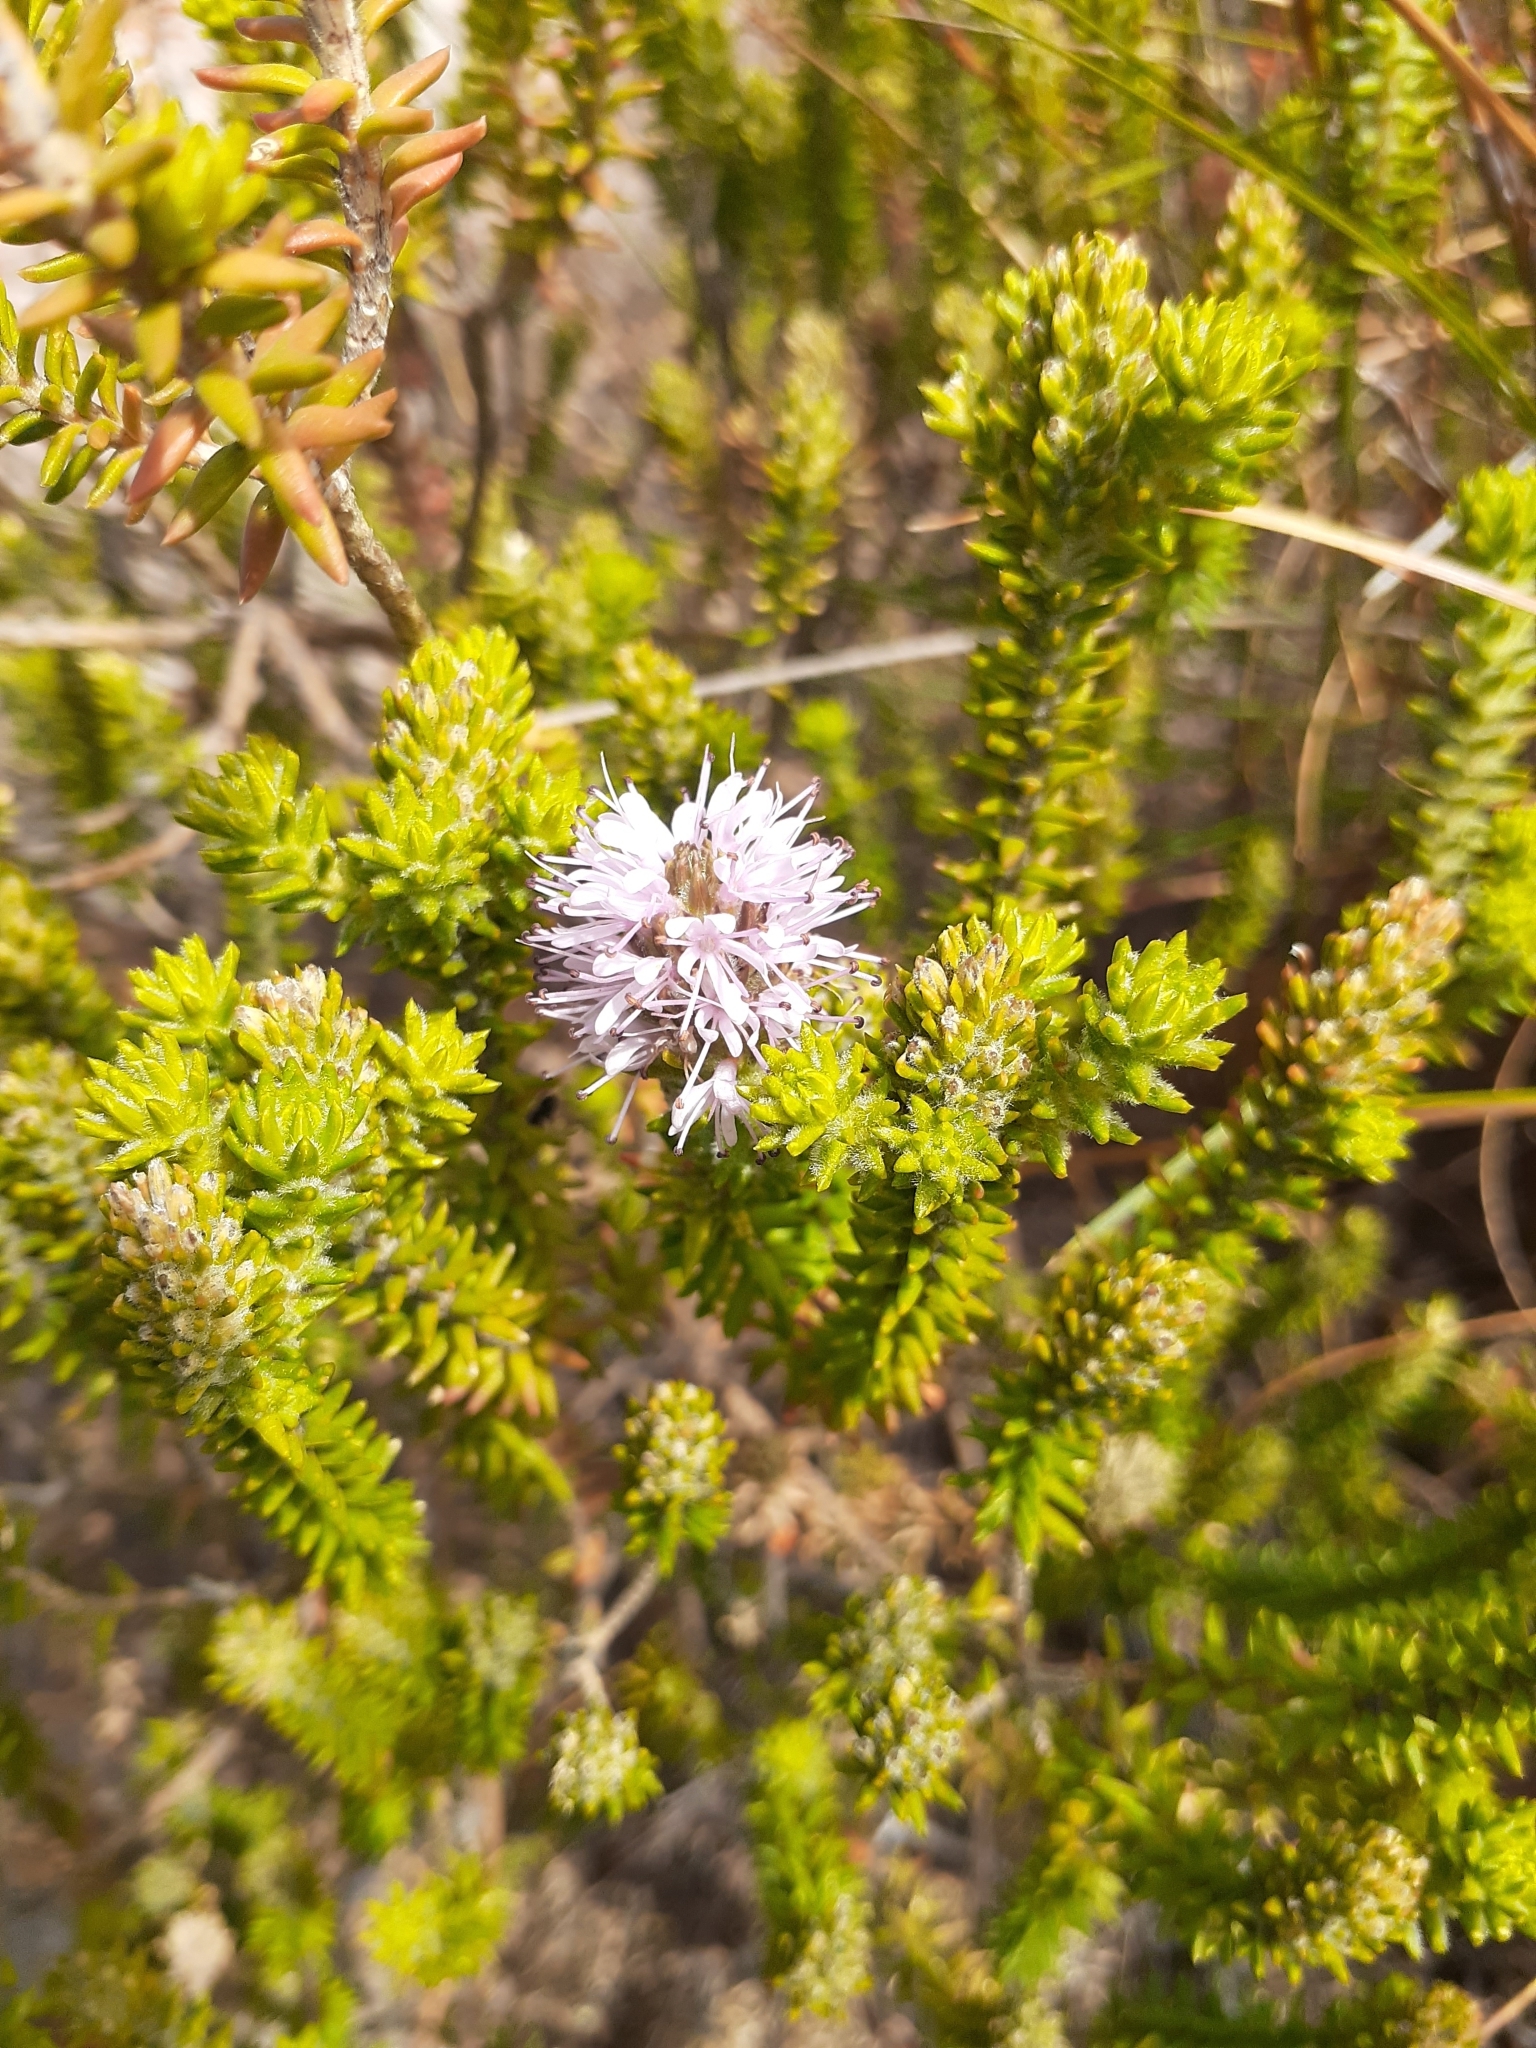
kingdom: Plantae
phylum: Tracheophyta
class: Magnoliopsida
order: Lamiales
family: Stilbaceae
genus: Stilbe
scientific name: Stilbe ericoides
